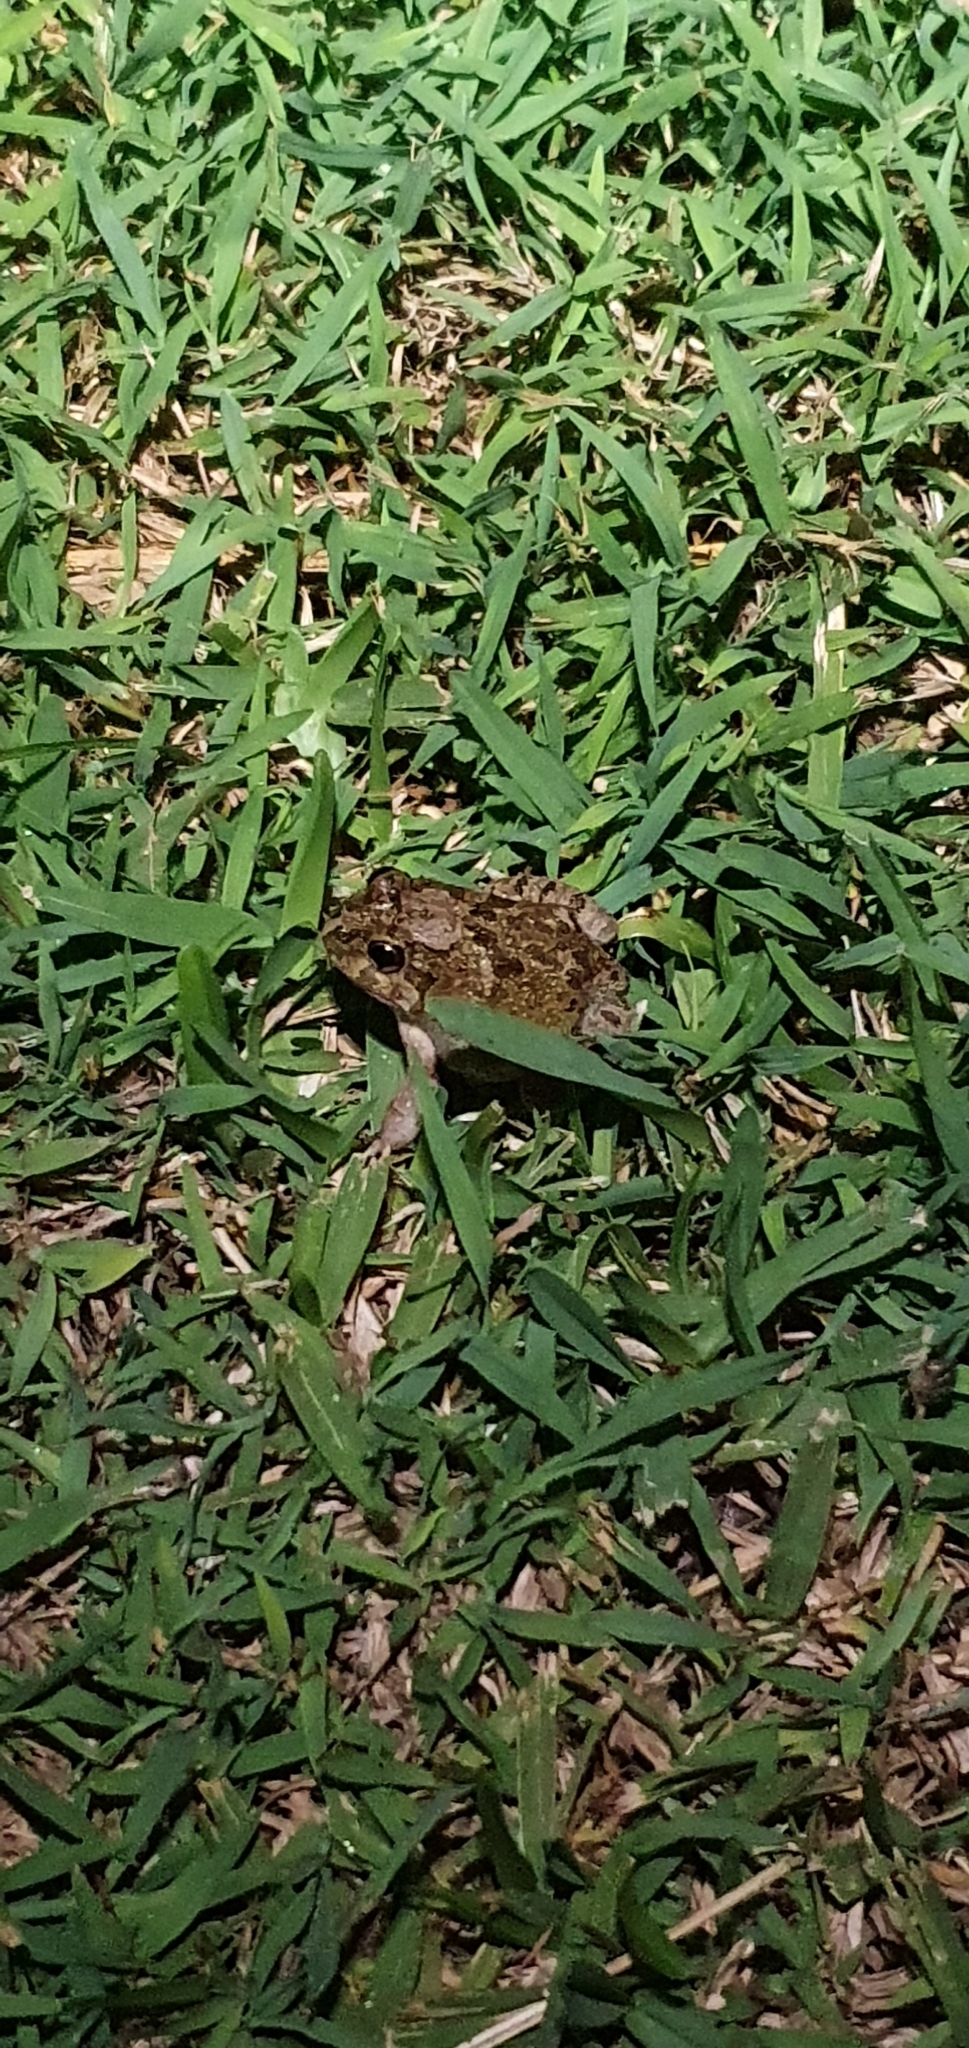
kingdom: Animalia
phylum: Chordata
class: Amphibia
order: Anura
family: Limnodynastidae
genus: Platyplectrum
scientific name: Platyplectrum ornatum
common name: Ornate burrowing frog
